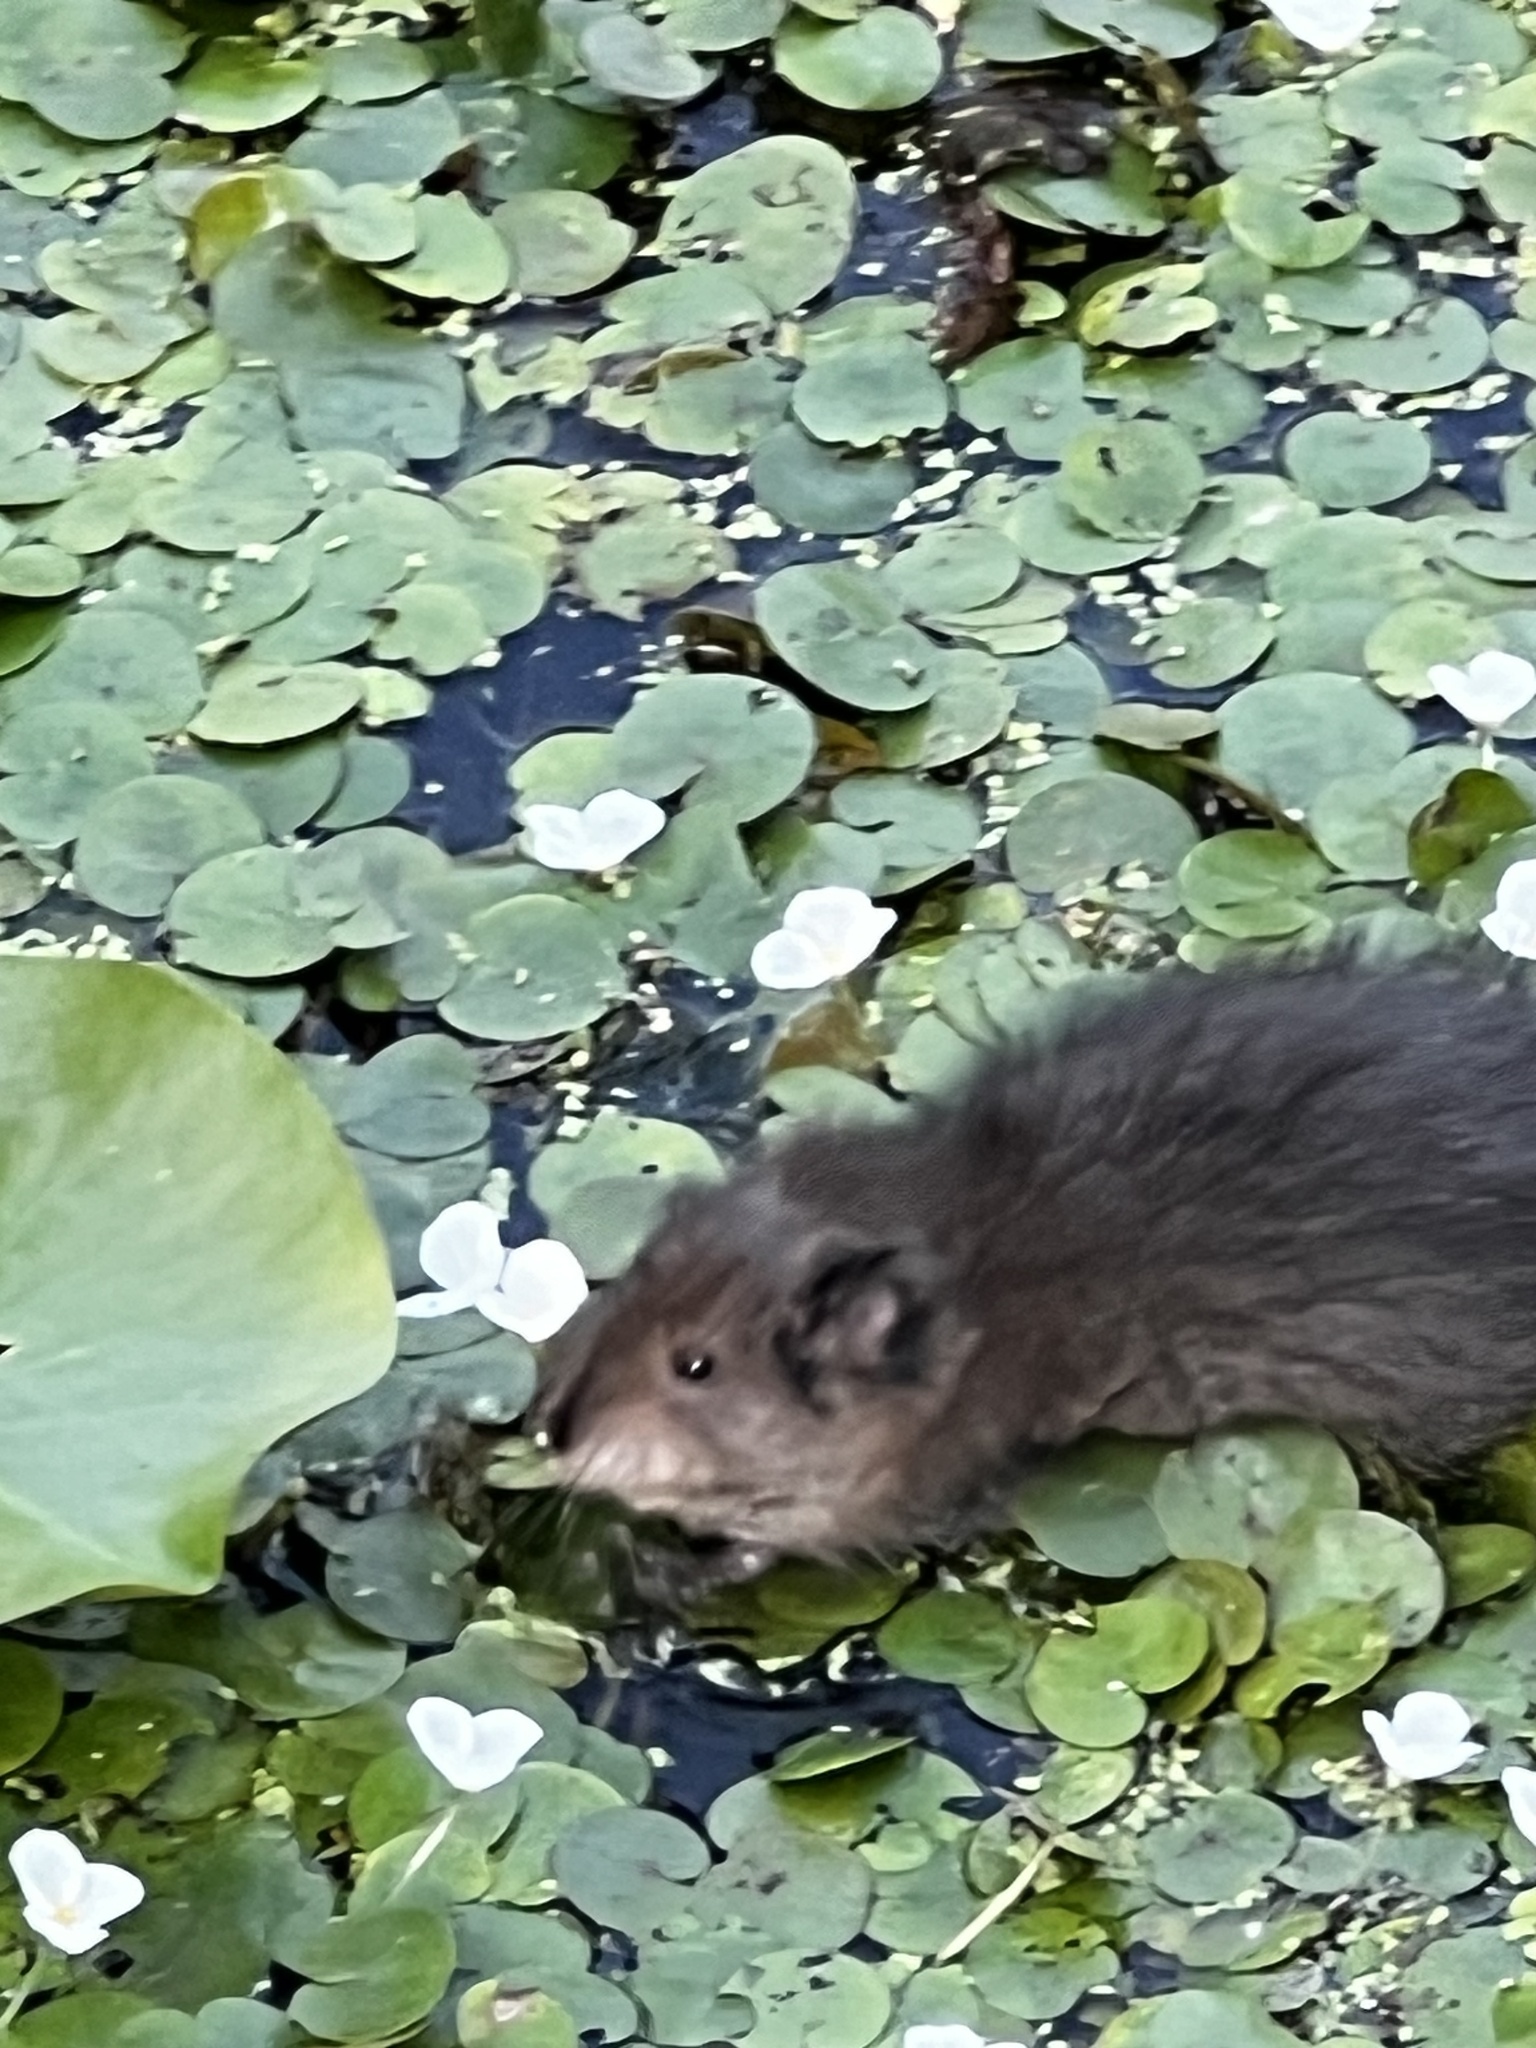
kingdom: Animalia
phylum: Chordata
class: Mammalia
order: Rodentia
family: Cricetidae
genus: Ondatra
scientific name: Ondatra zibethicus
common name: Muskrat
